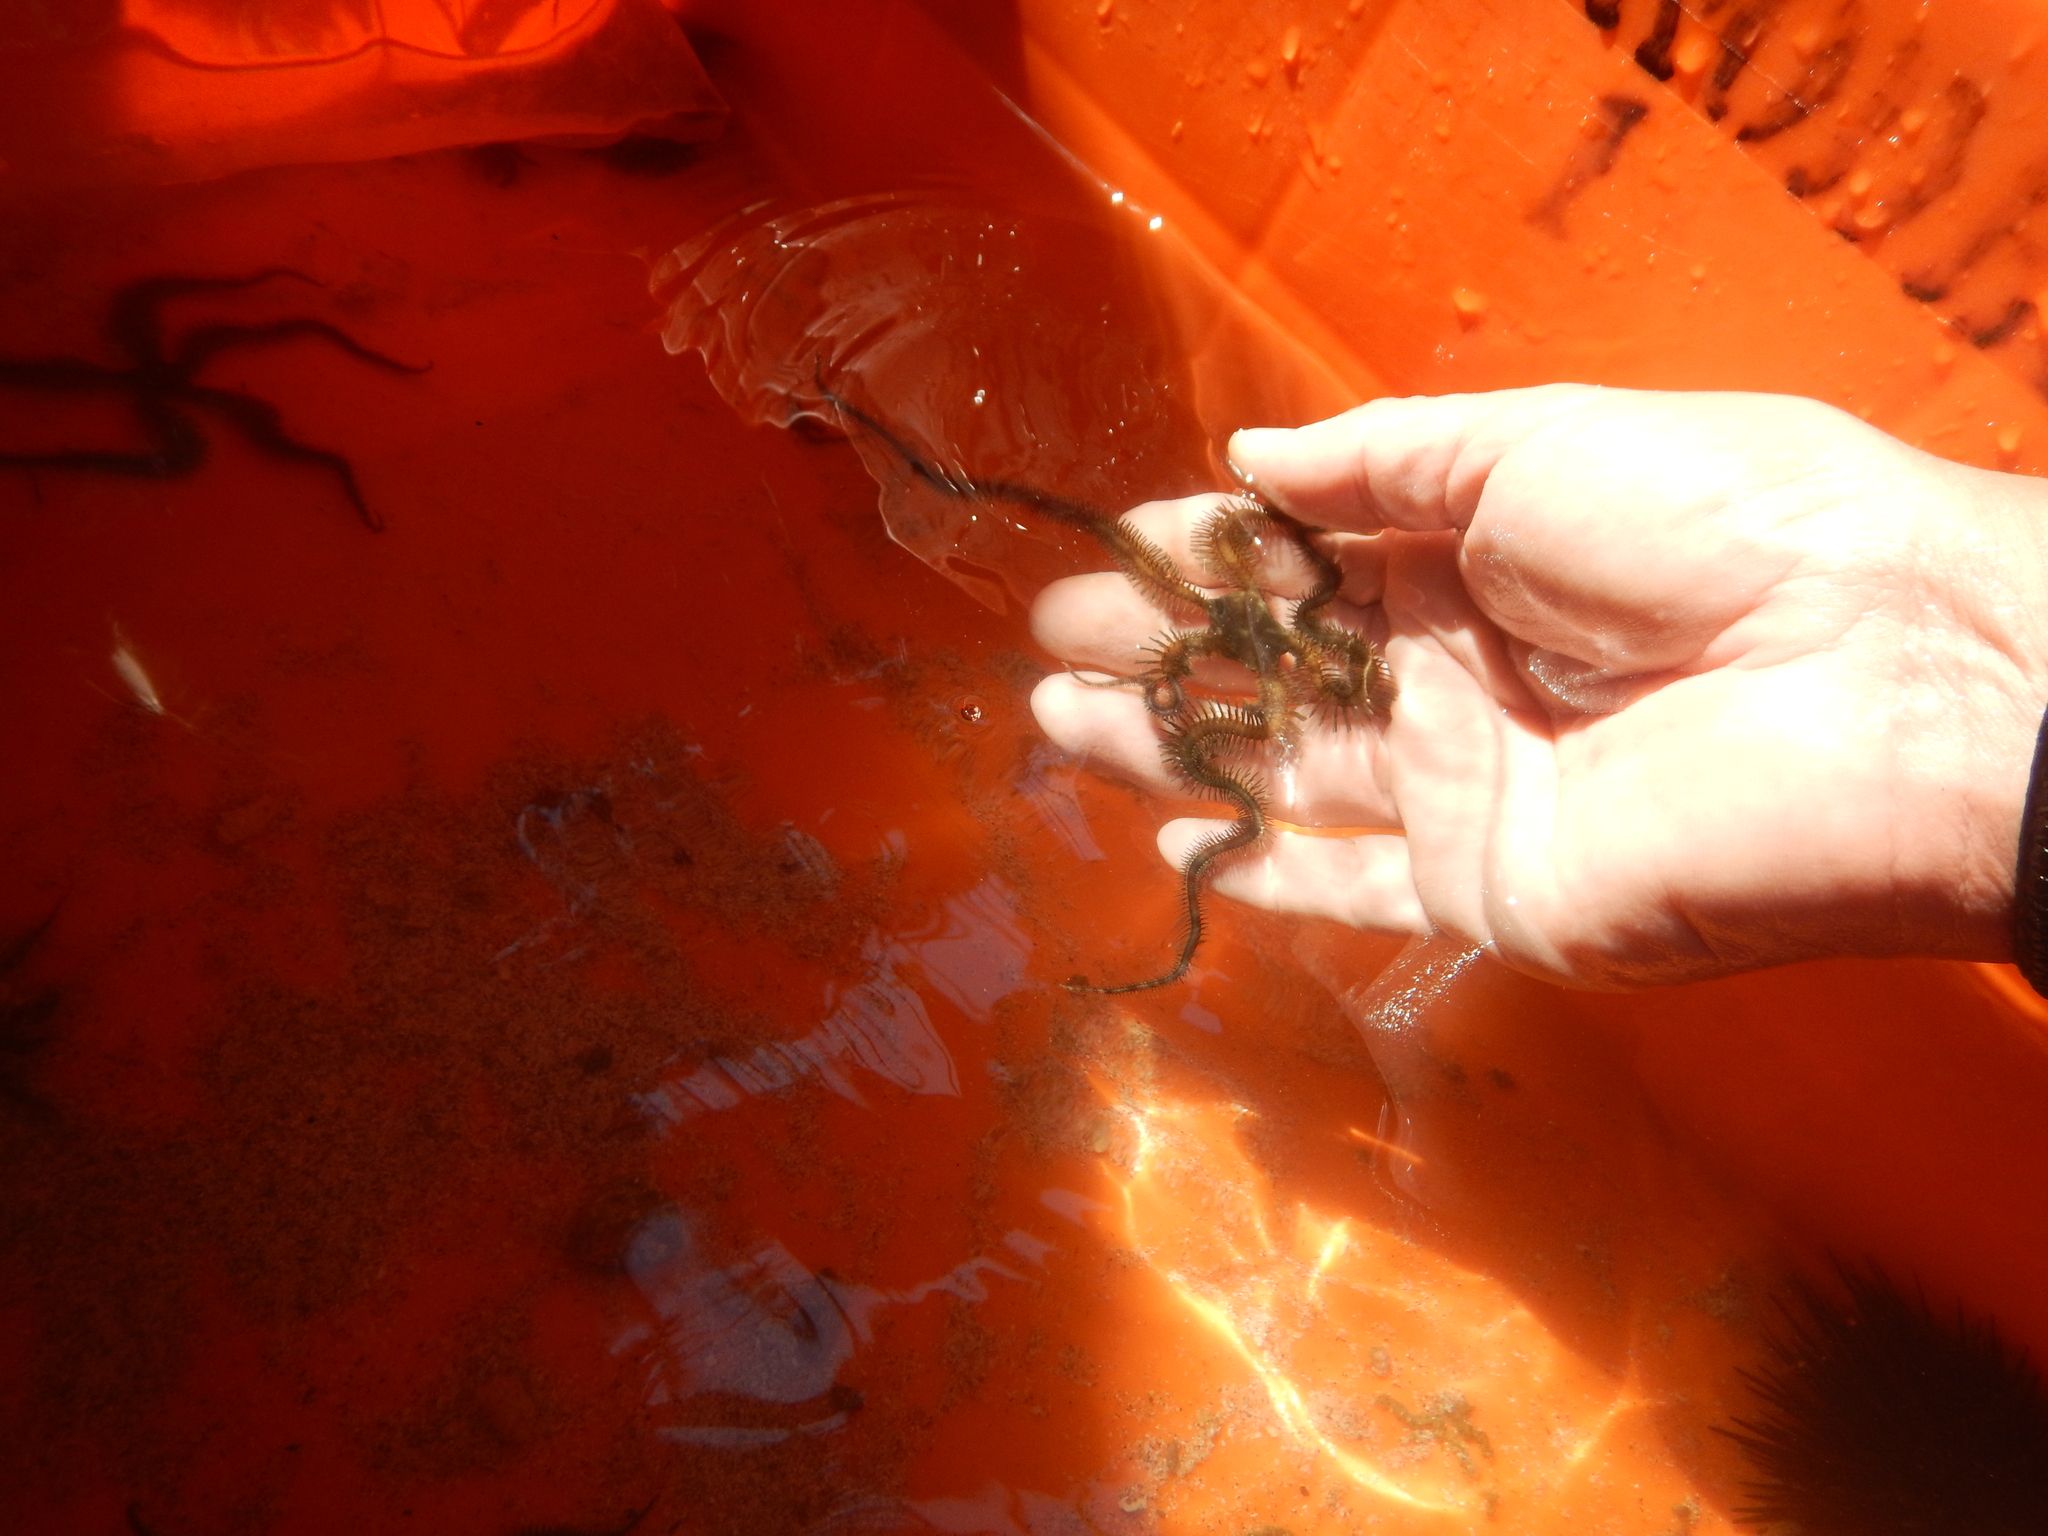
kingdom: Animalia
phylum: Echinodermata
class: Ophiuroidea
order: Ophiacanthida
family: Ophiocomidae
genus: Ophiocomella
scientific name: Ophiocomella alexandri
